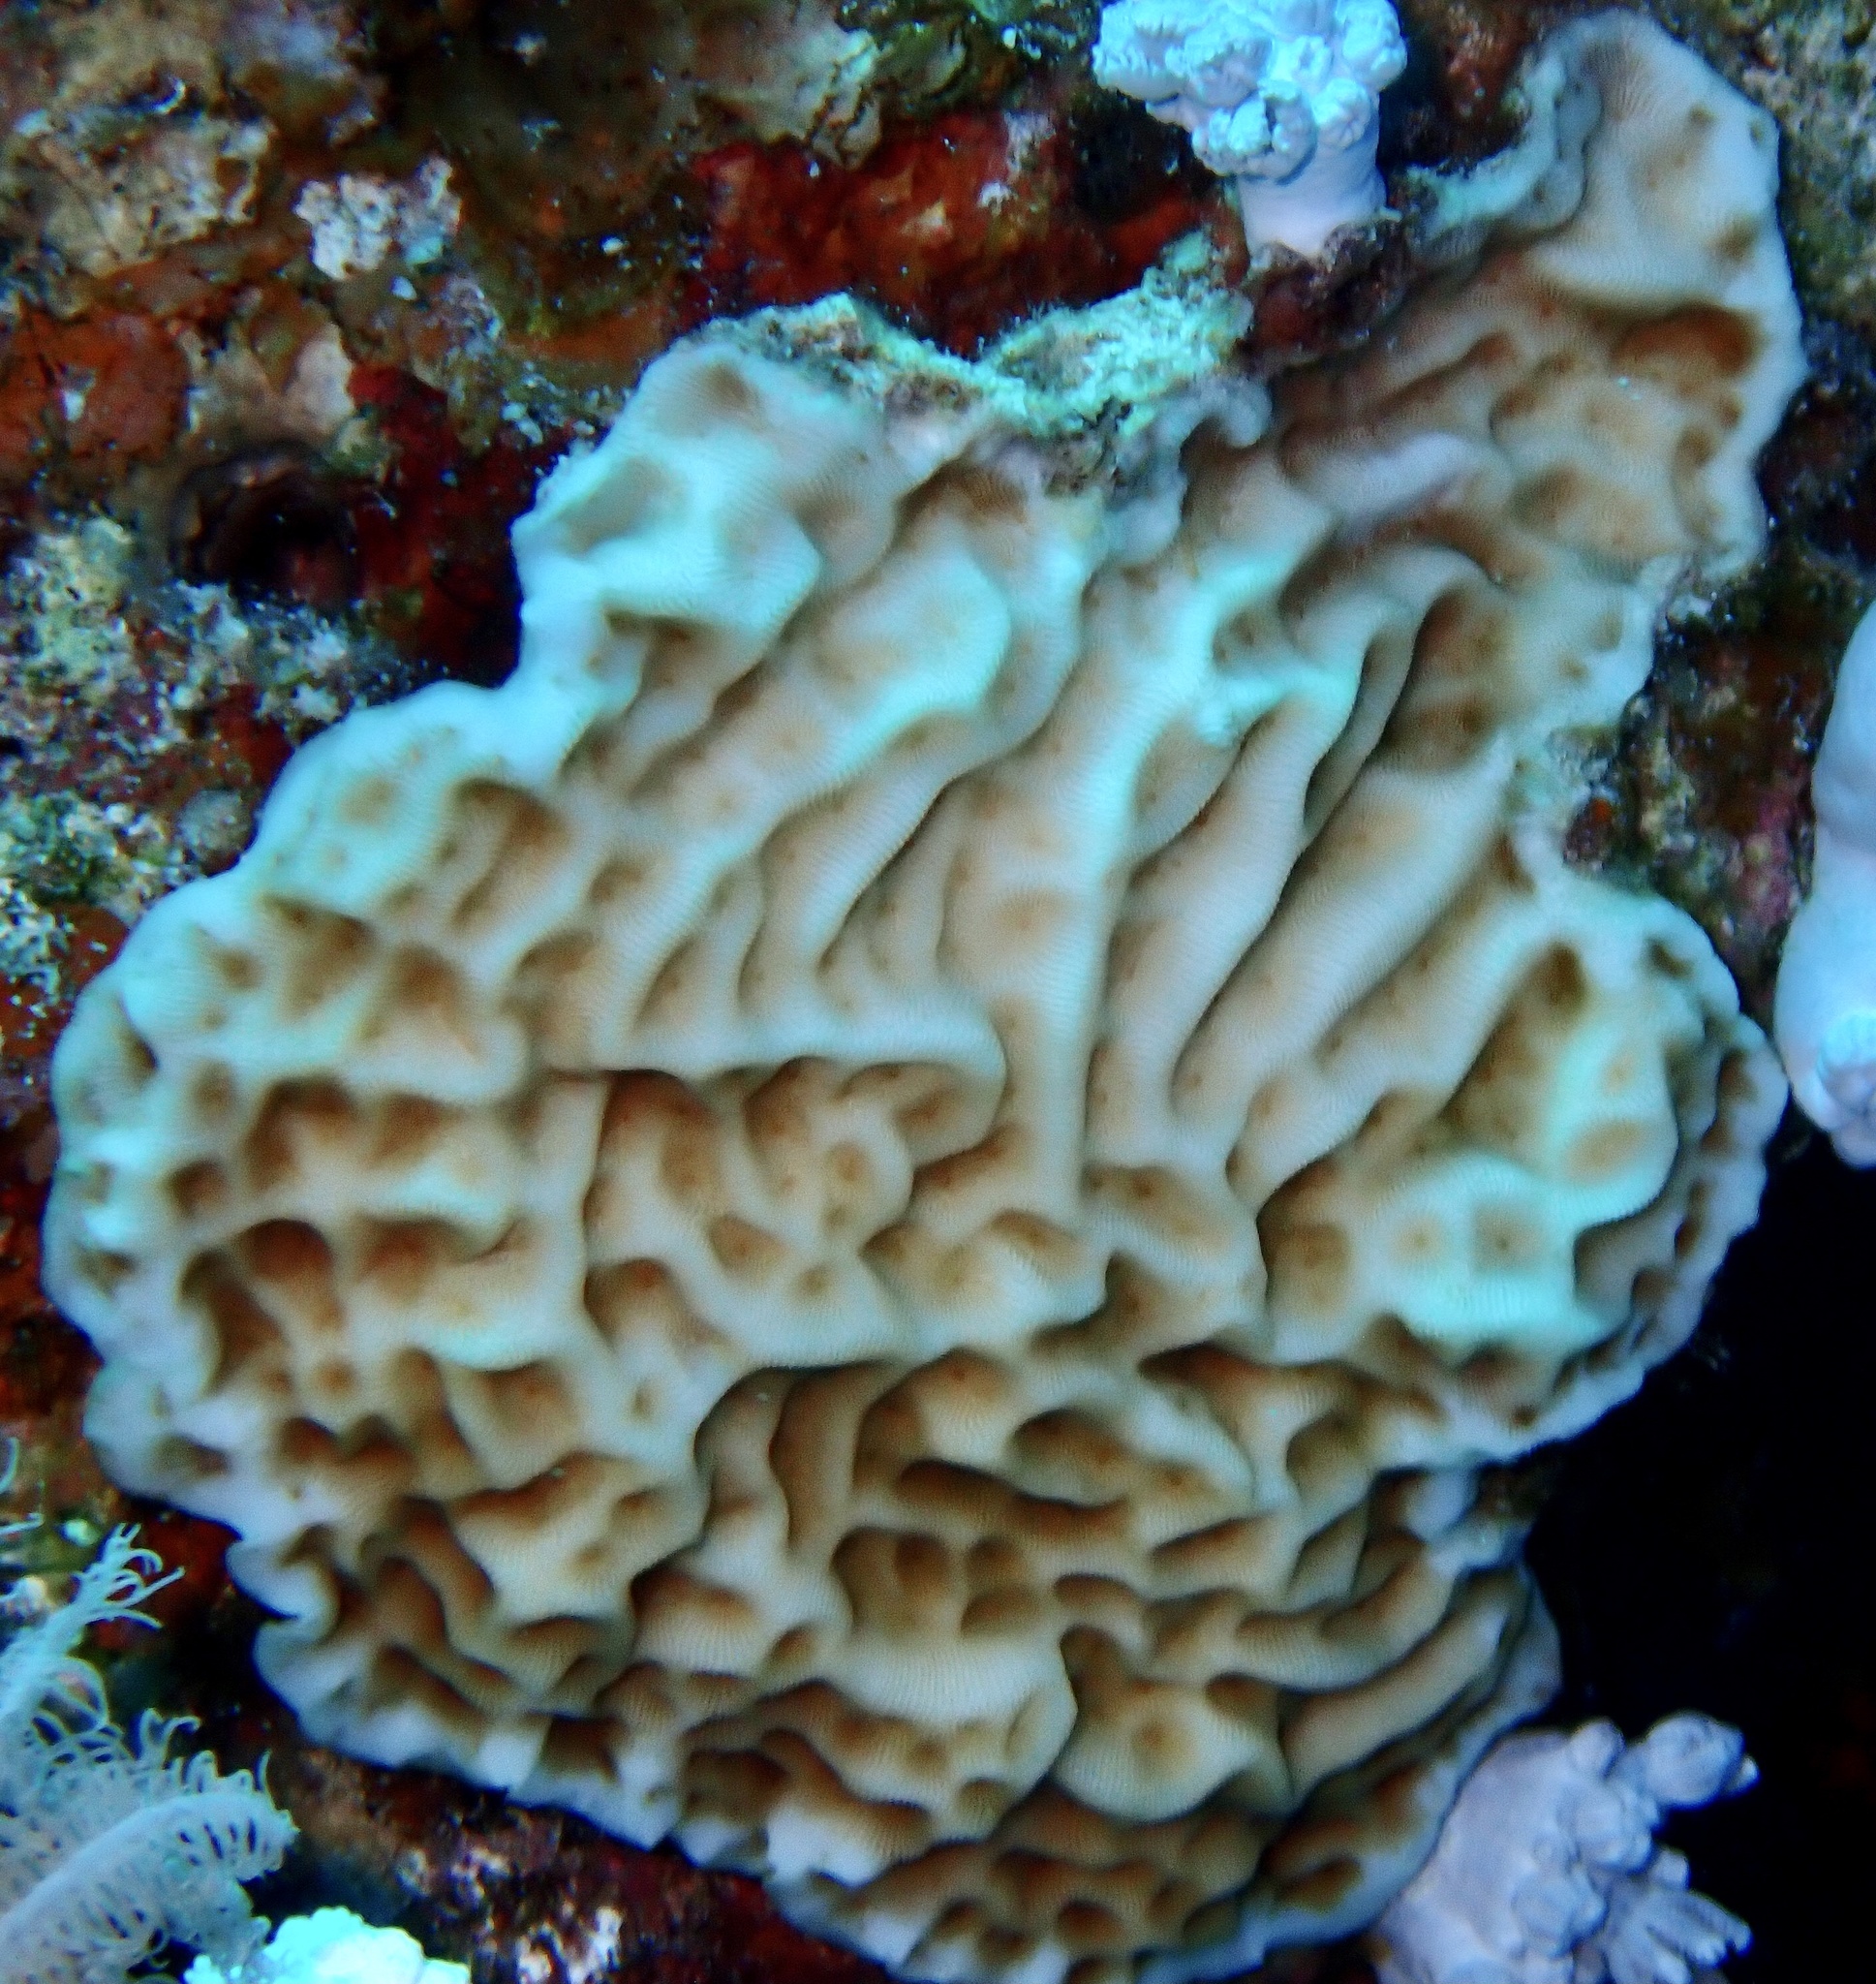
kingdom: Animalia
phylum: Cnidaria
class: Anthozoa
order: Scleractinia
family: Agariciidae
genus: Leptoseris
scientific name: Leptoseris mycetoseroides
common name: Porcelain coral
